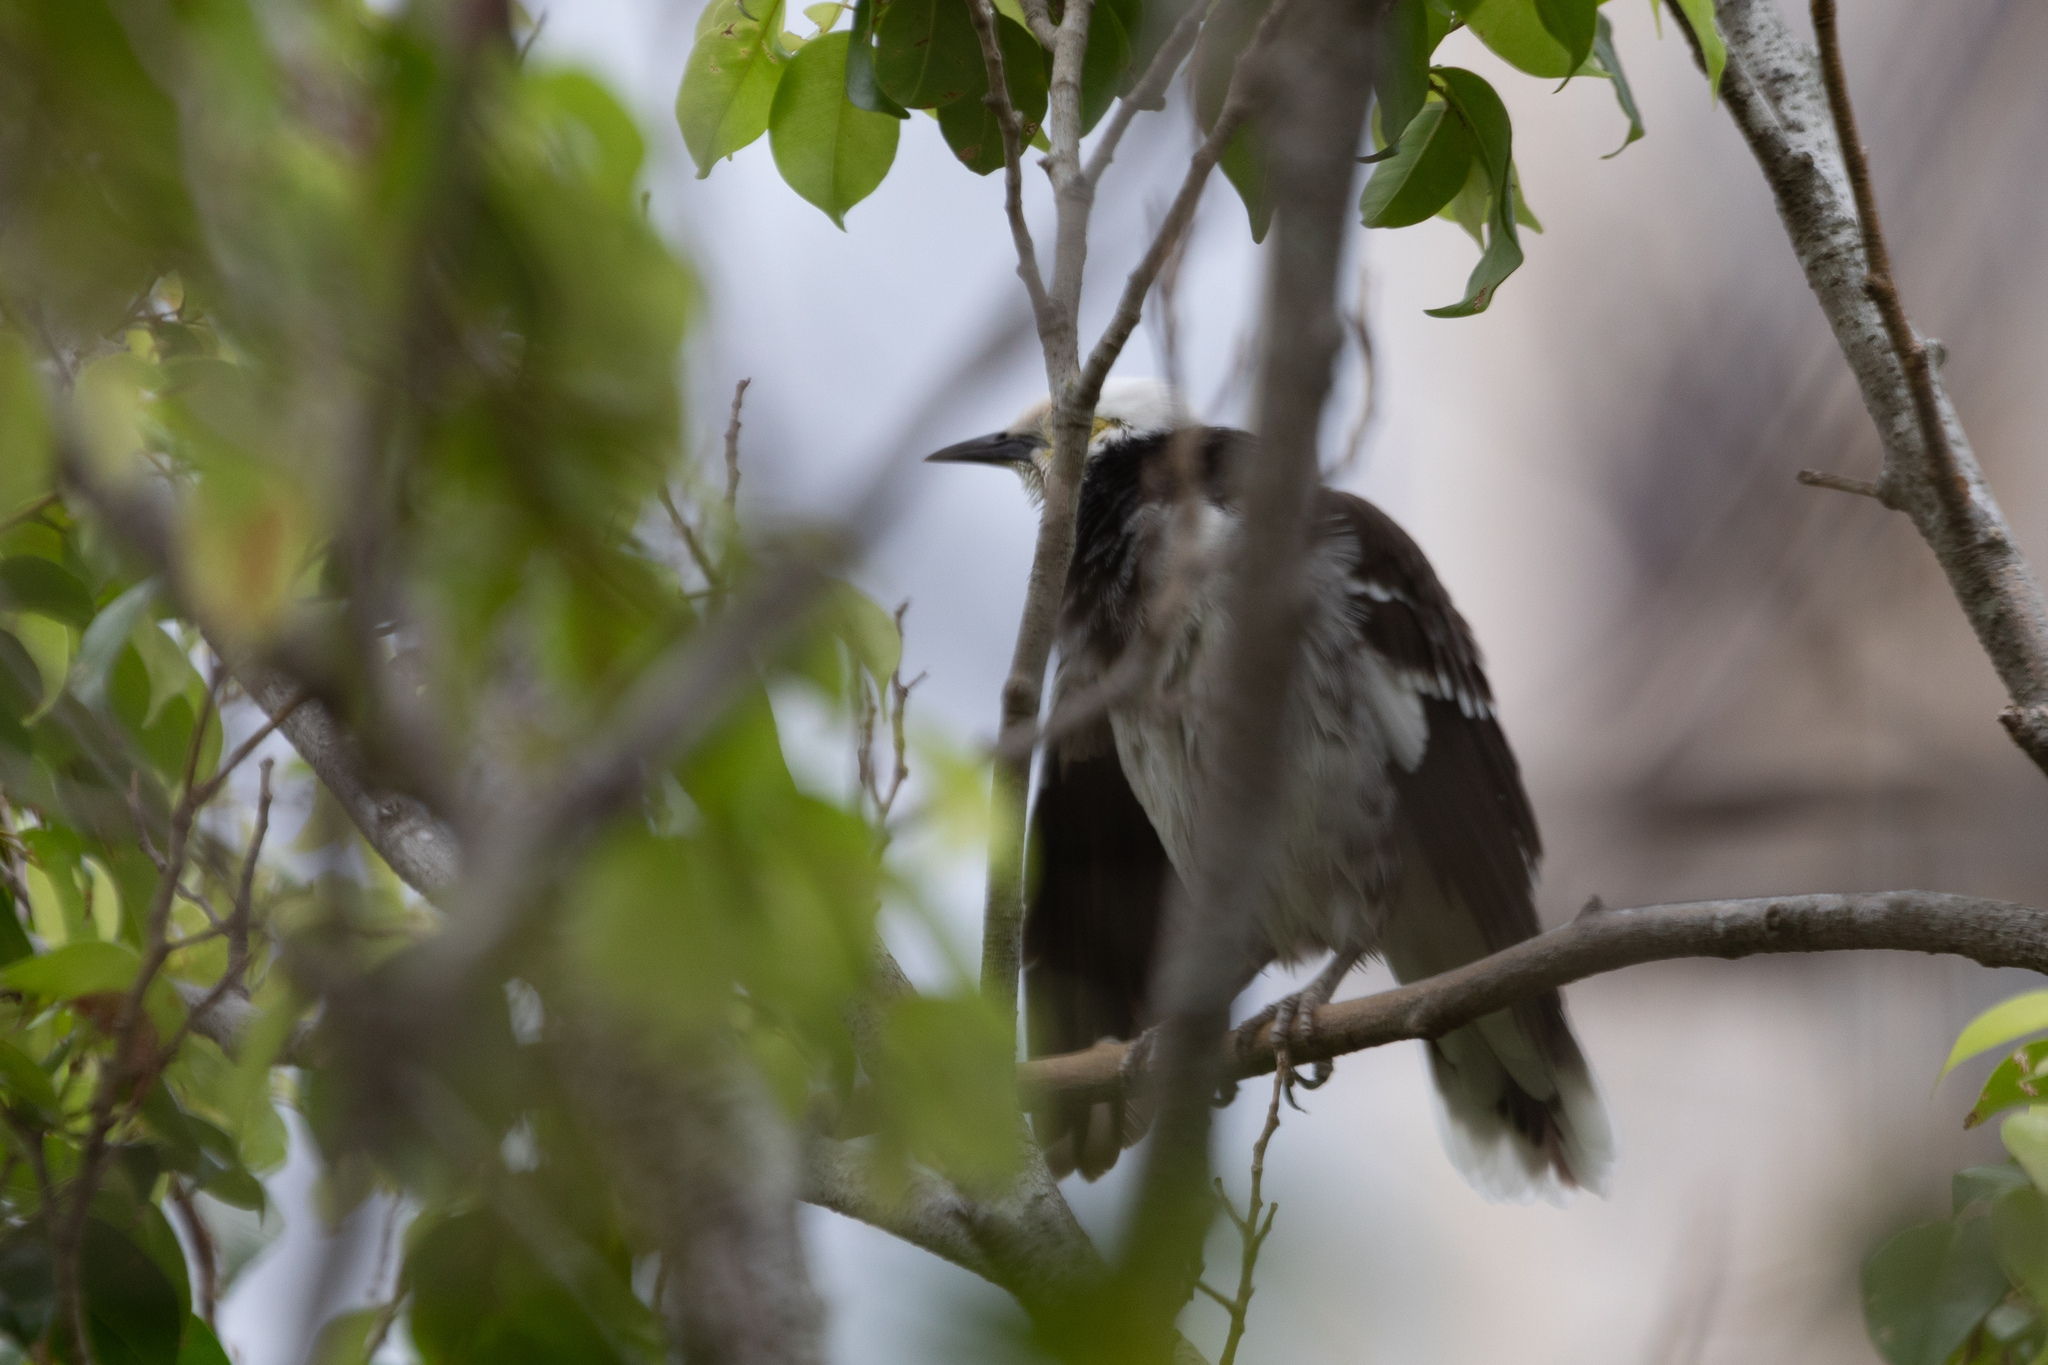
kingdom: Animalia
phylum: Chordata
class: Aves
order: Passeriformes
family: Sturnidae
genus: Gracupica
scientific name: Gracupica nigricollis
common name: Black-collared starling
